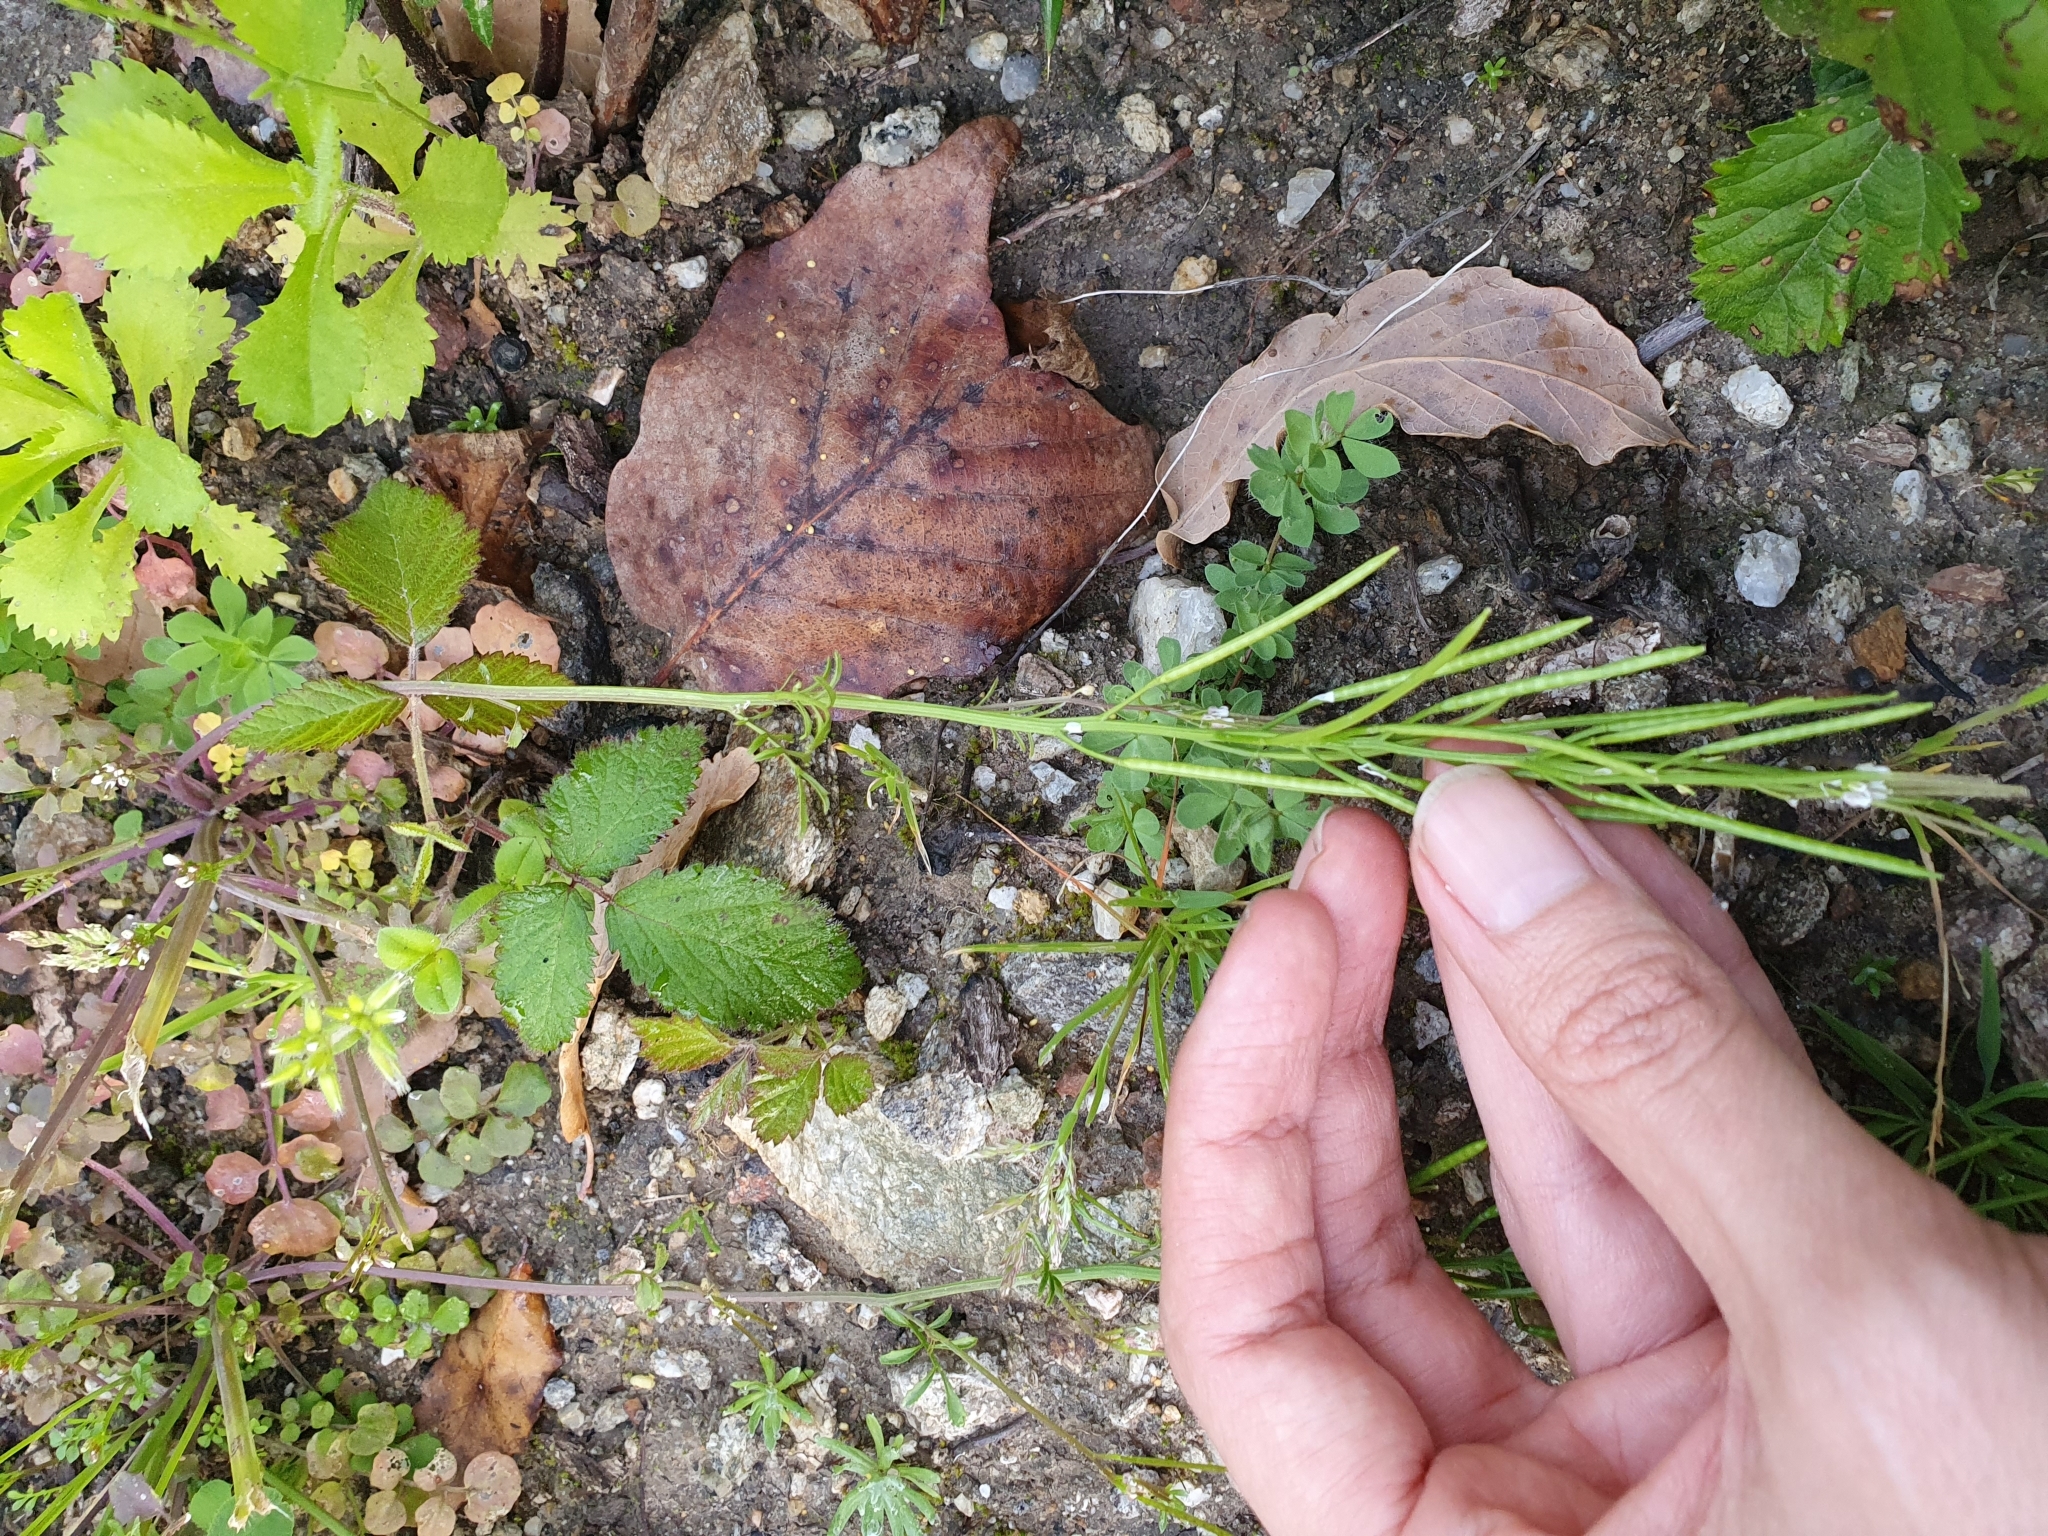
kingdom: Plantae
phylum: Tracheophyta
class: Magnoliopsida
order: Brassicales
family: Brassicaceae
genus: Cardamine
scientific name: Cardamine hirsuta
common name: Hairy bittercress
